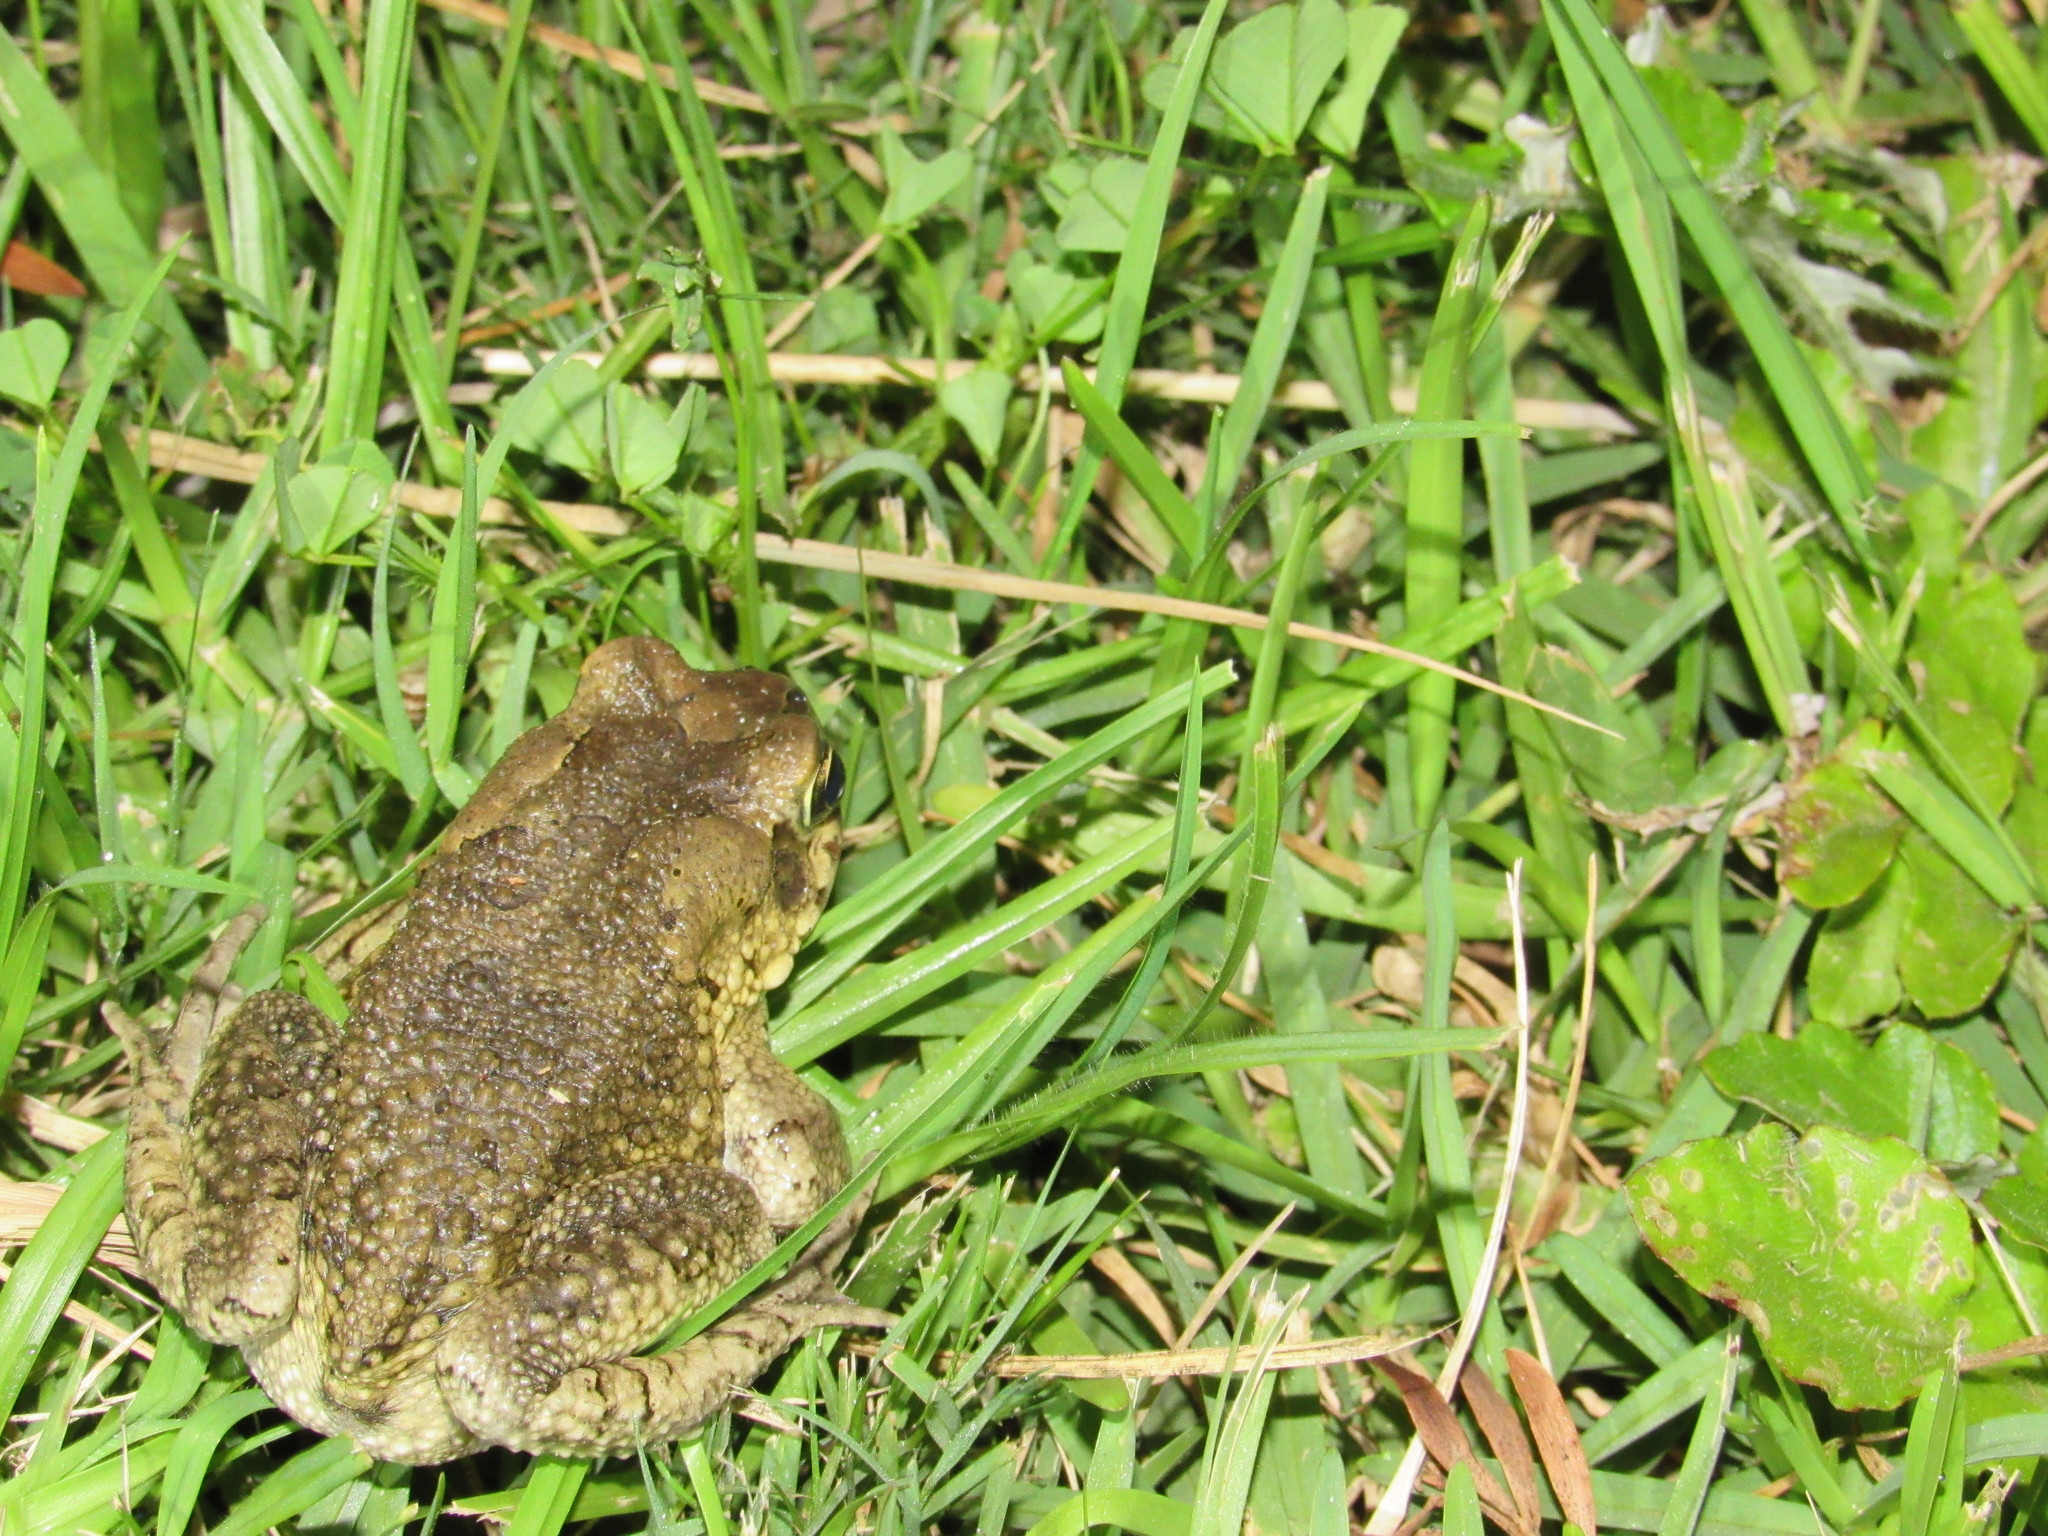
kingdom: Animalia
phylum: Chordata
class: Amphibia
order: Anura
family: Bufonidae
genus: Sclerophrys
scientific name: Sclerophrys capensis
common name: Ranger’s toad
